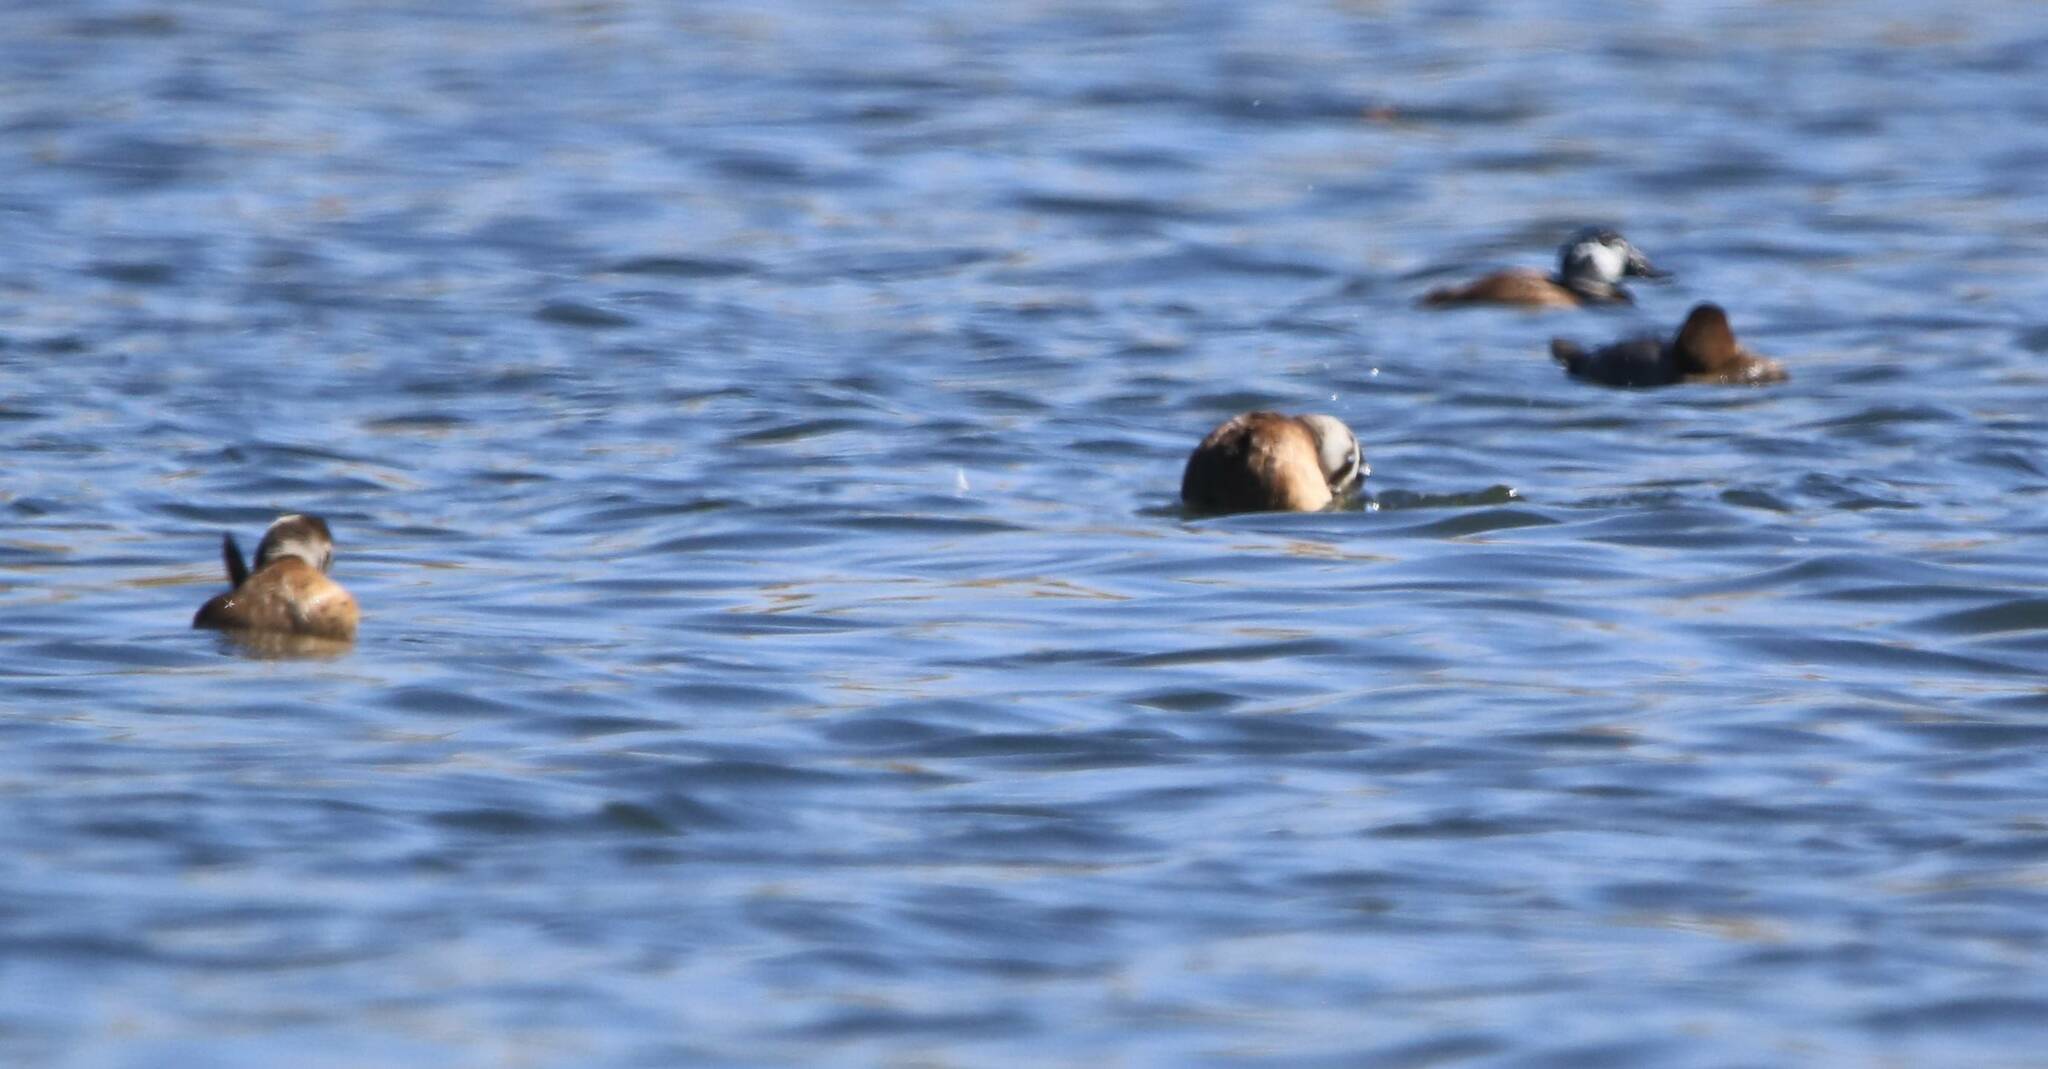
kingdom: Animalia
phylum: Chordata
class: Aves
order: Anseriformes
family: Anatidae
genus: Oxyura
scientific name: Oxyura leucocephala
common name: White-headed duck
